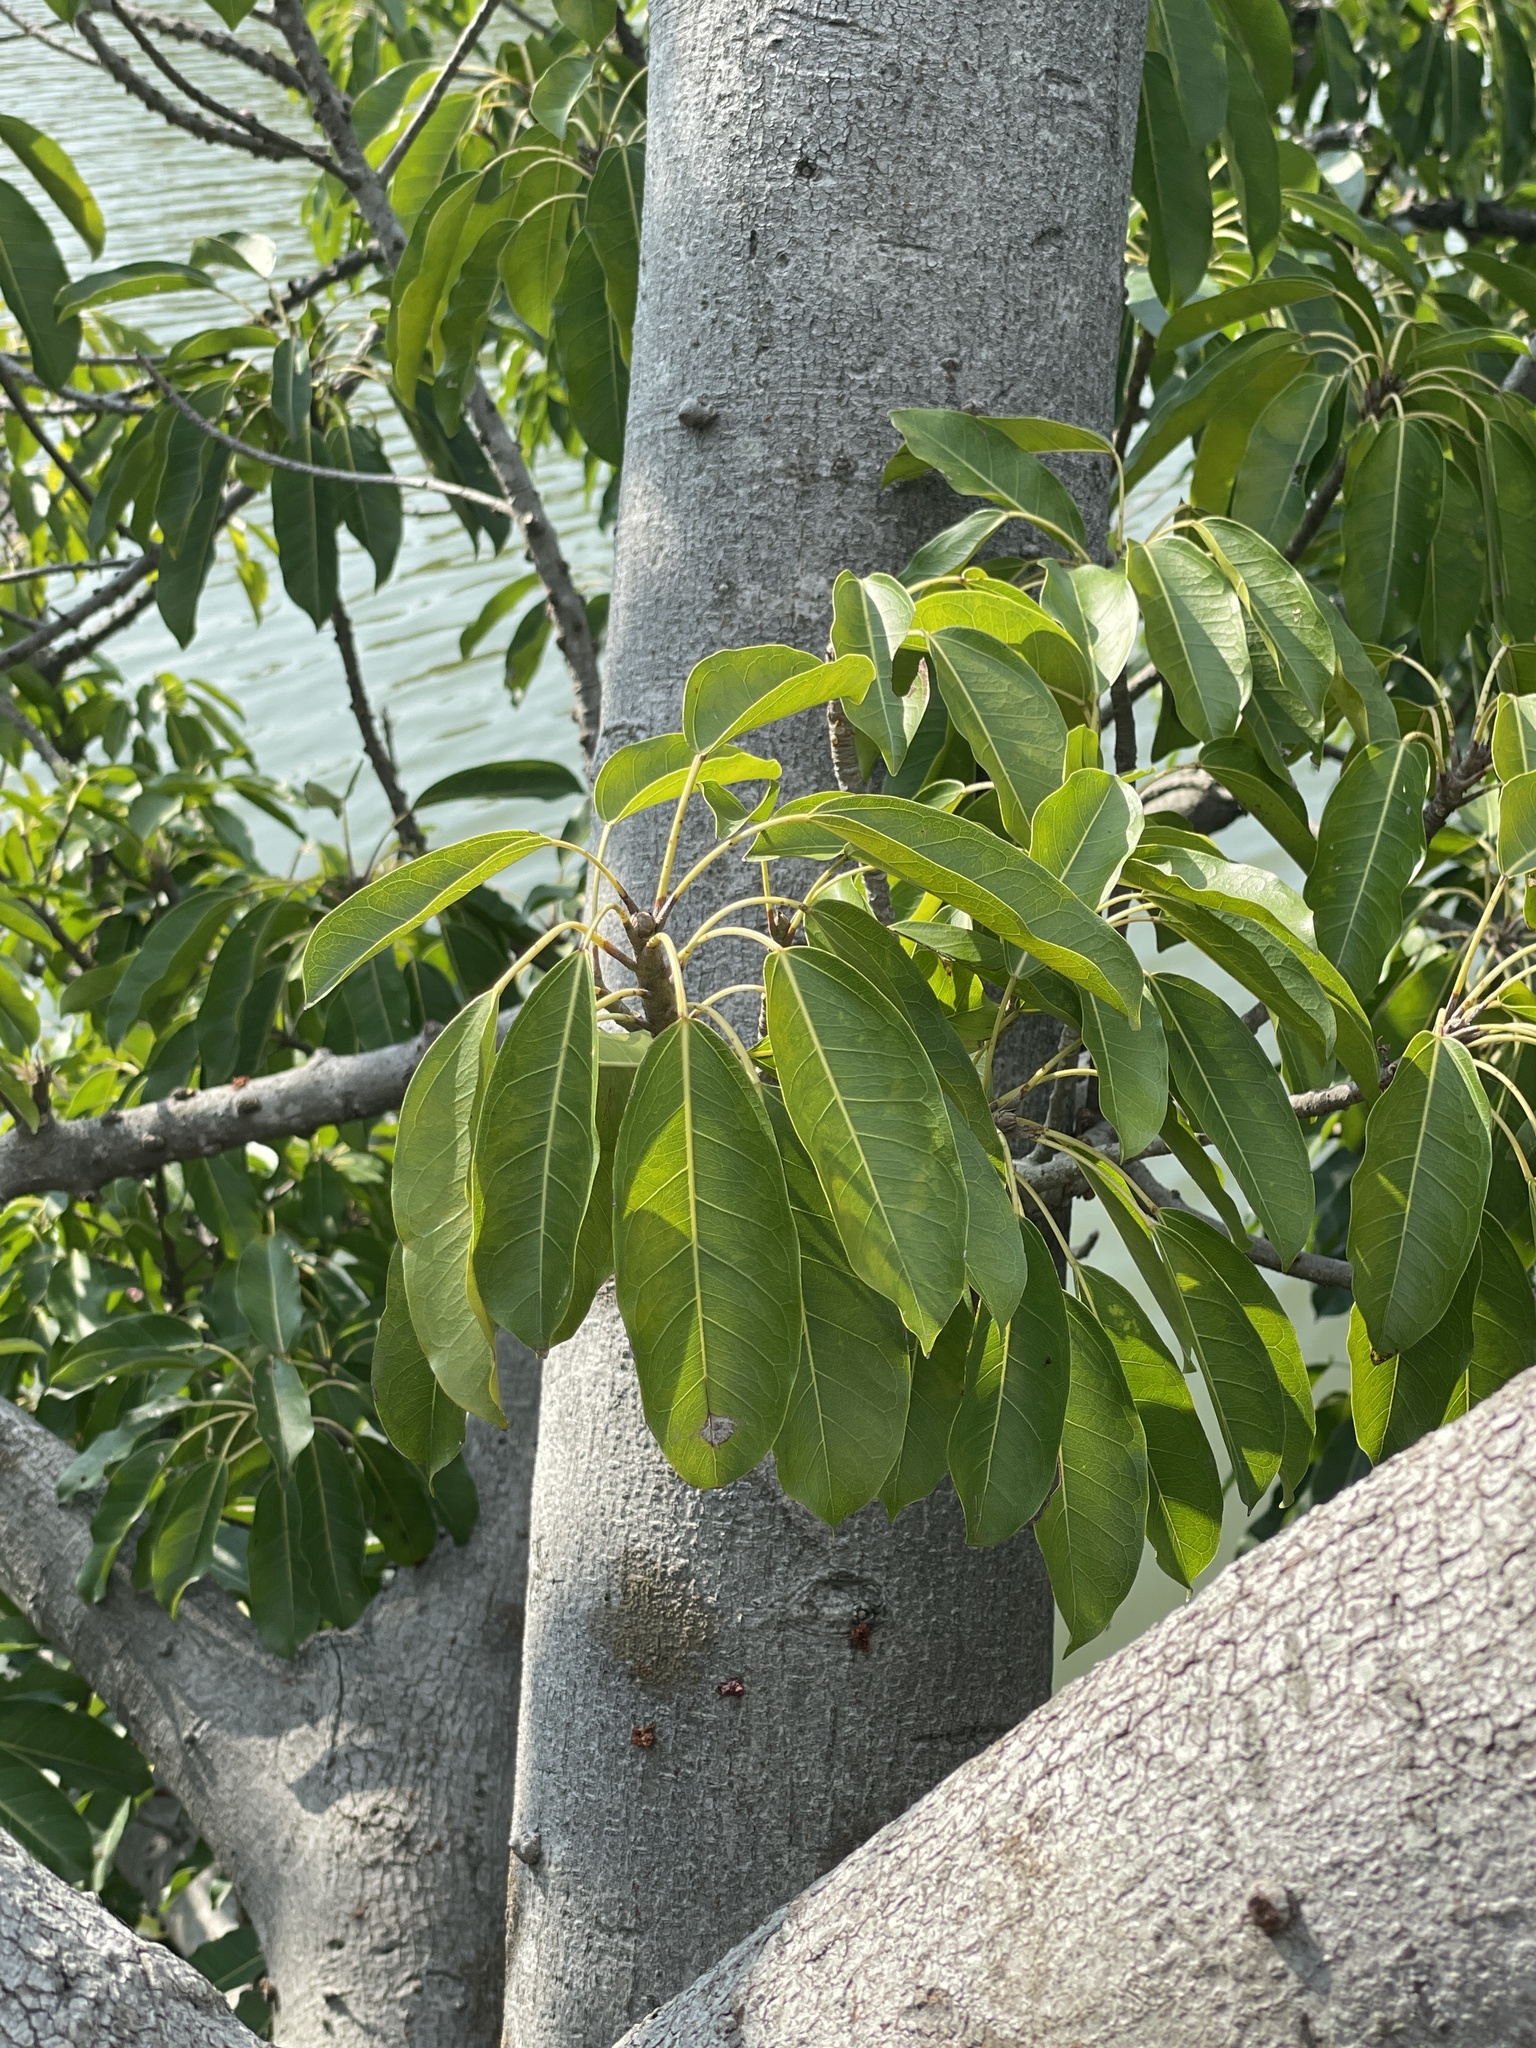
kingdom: Plantae
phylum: Tracheophyta
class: Magnoliopsida
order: Rosales
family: Moraceae
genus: Ficus
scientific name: Ficus subpisocarpa
